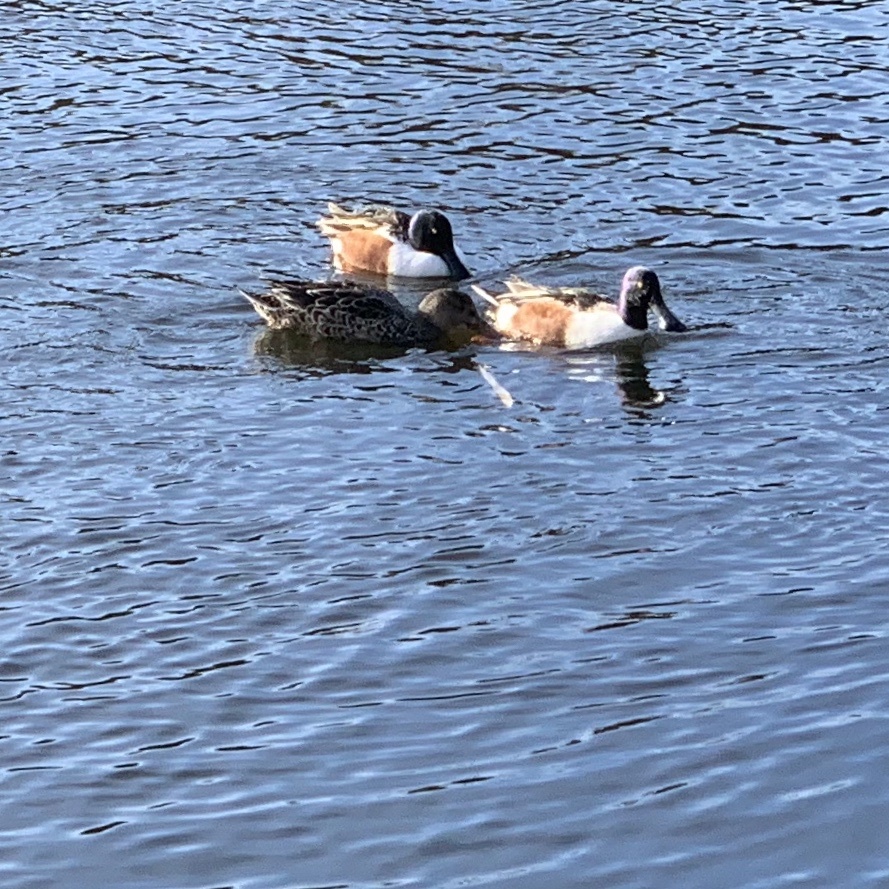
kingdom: Animalia
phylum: Chordata
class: Aves
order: Anseriformes
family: Anatidae
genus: Spatula
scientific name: Spatula clypeata
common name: Northern shoveler
